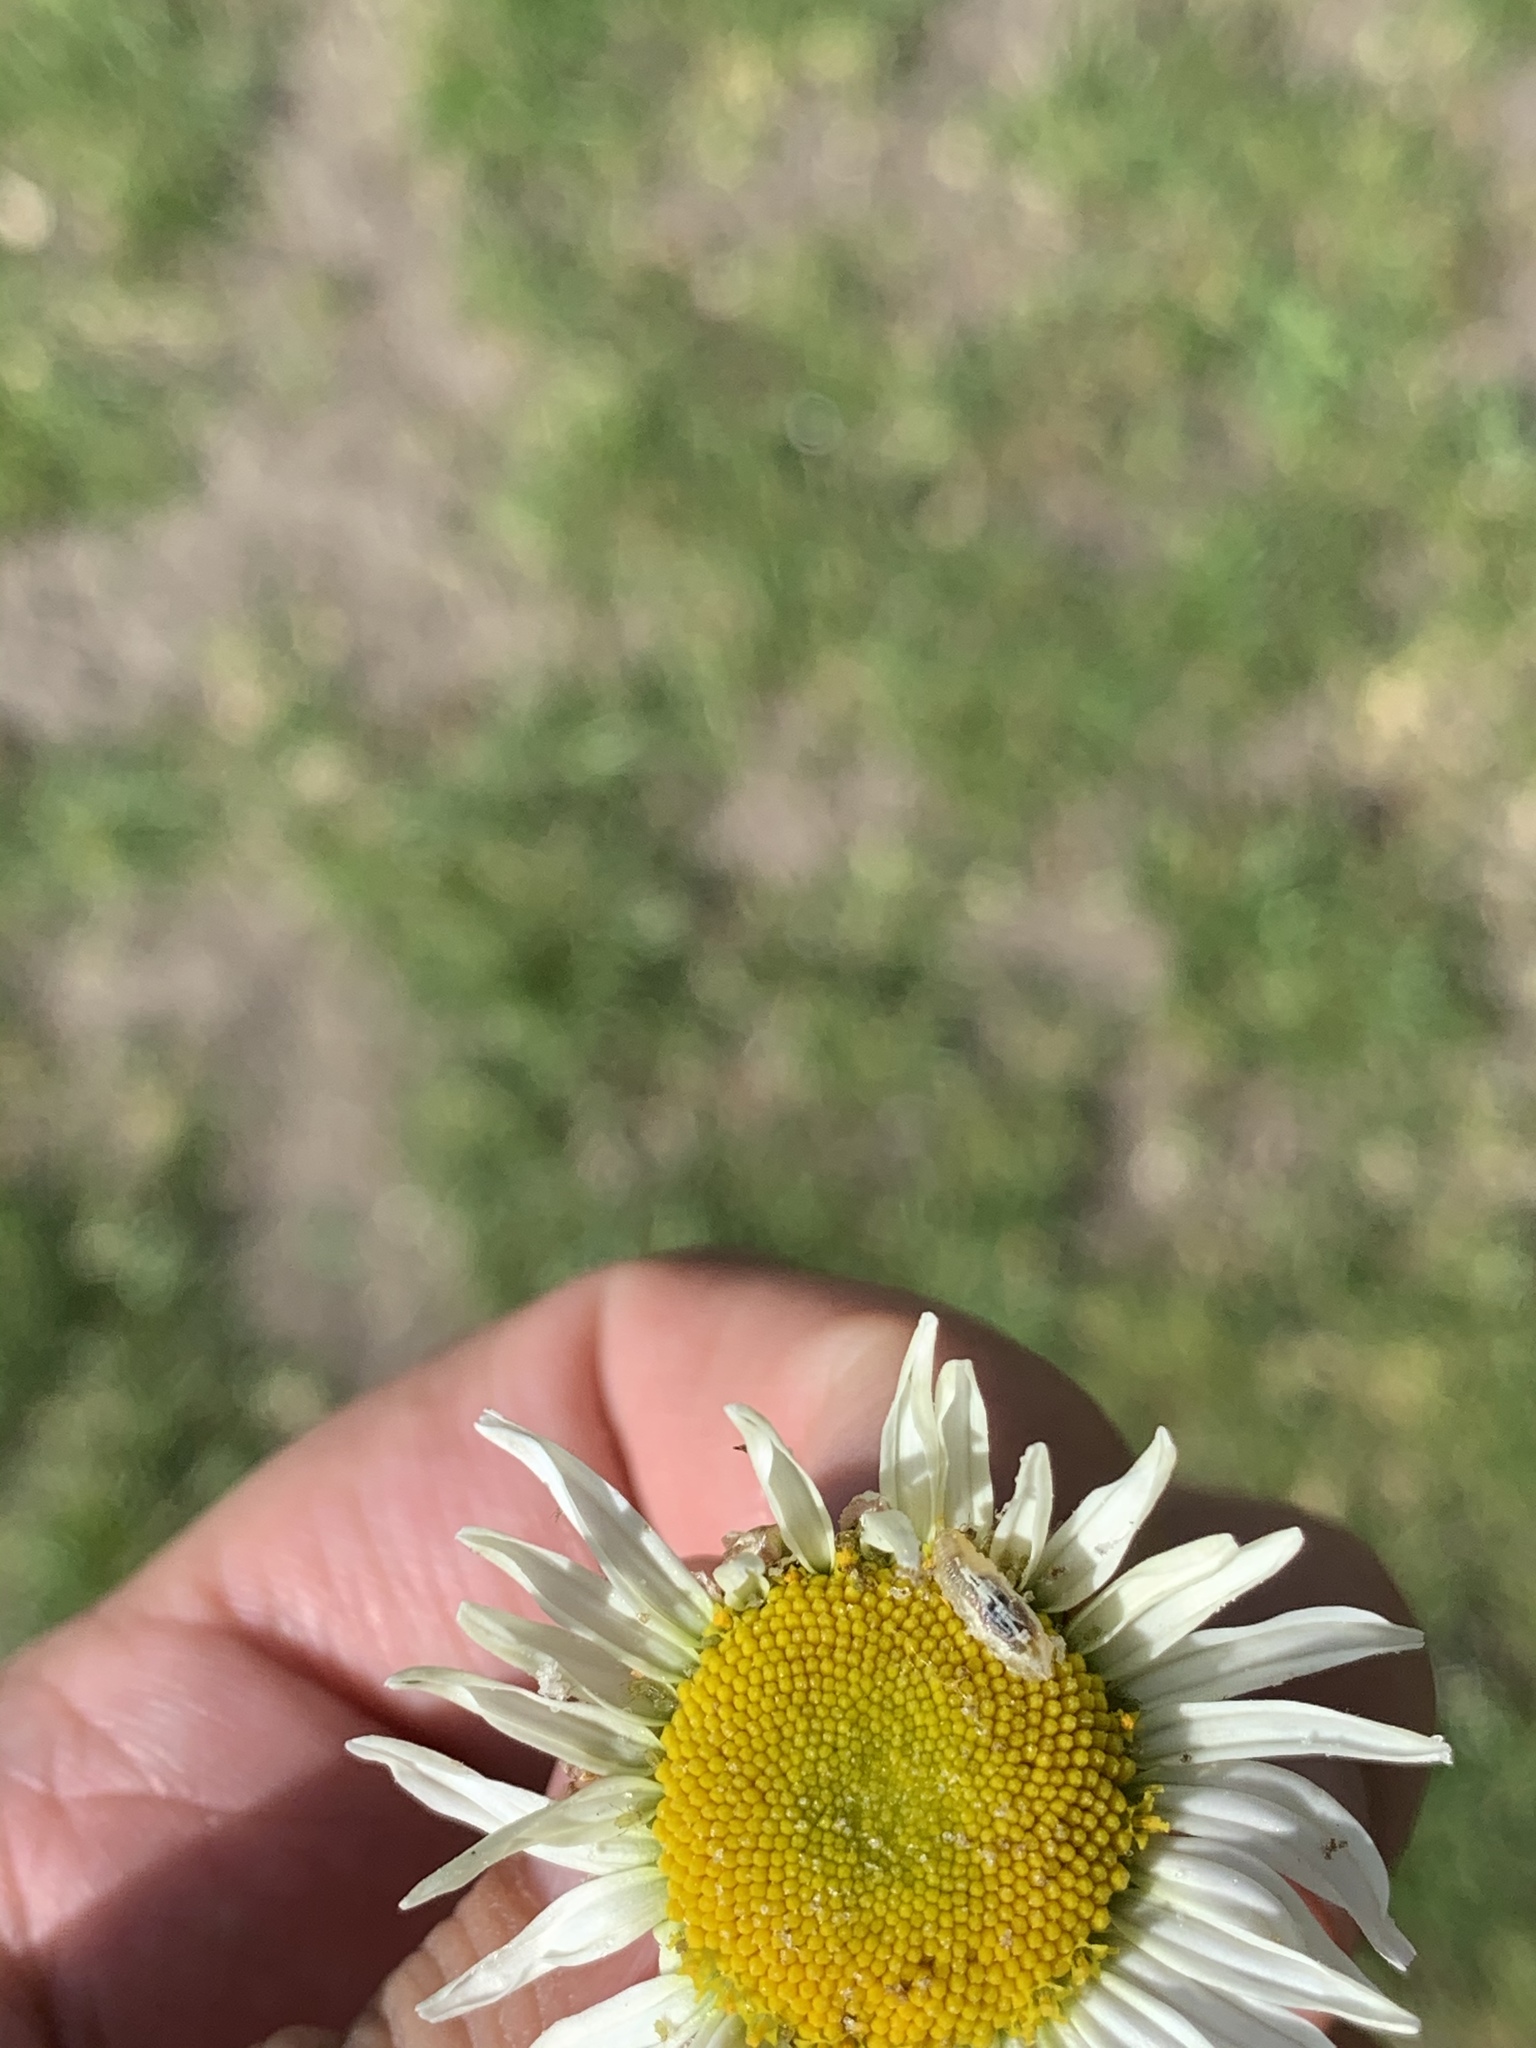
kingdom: Animalia
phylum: Arthropoda
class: Insecta
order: Diptera
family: Syrphidae
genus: Episyrphus
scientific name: Episyrphus balteatus
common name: Marmalade hoverfly
